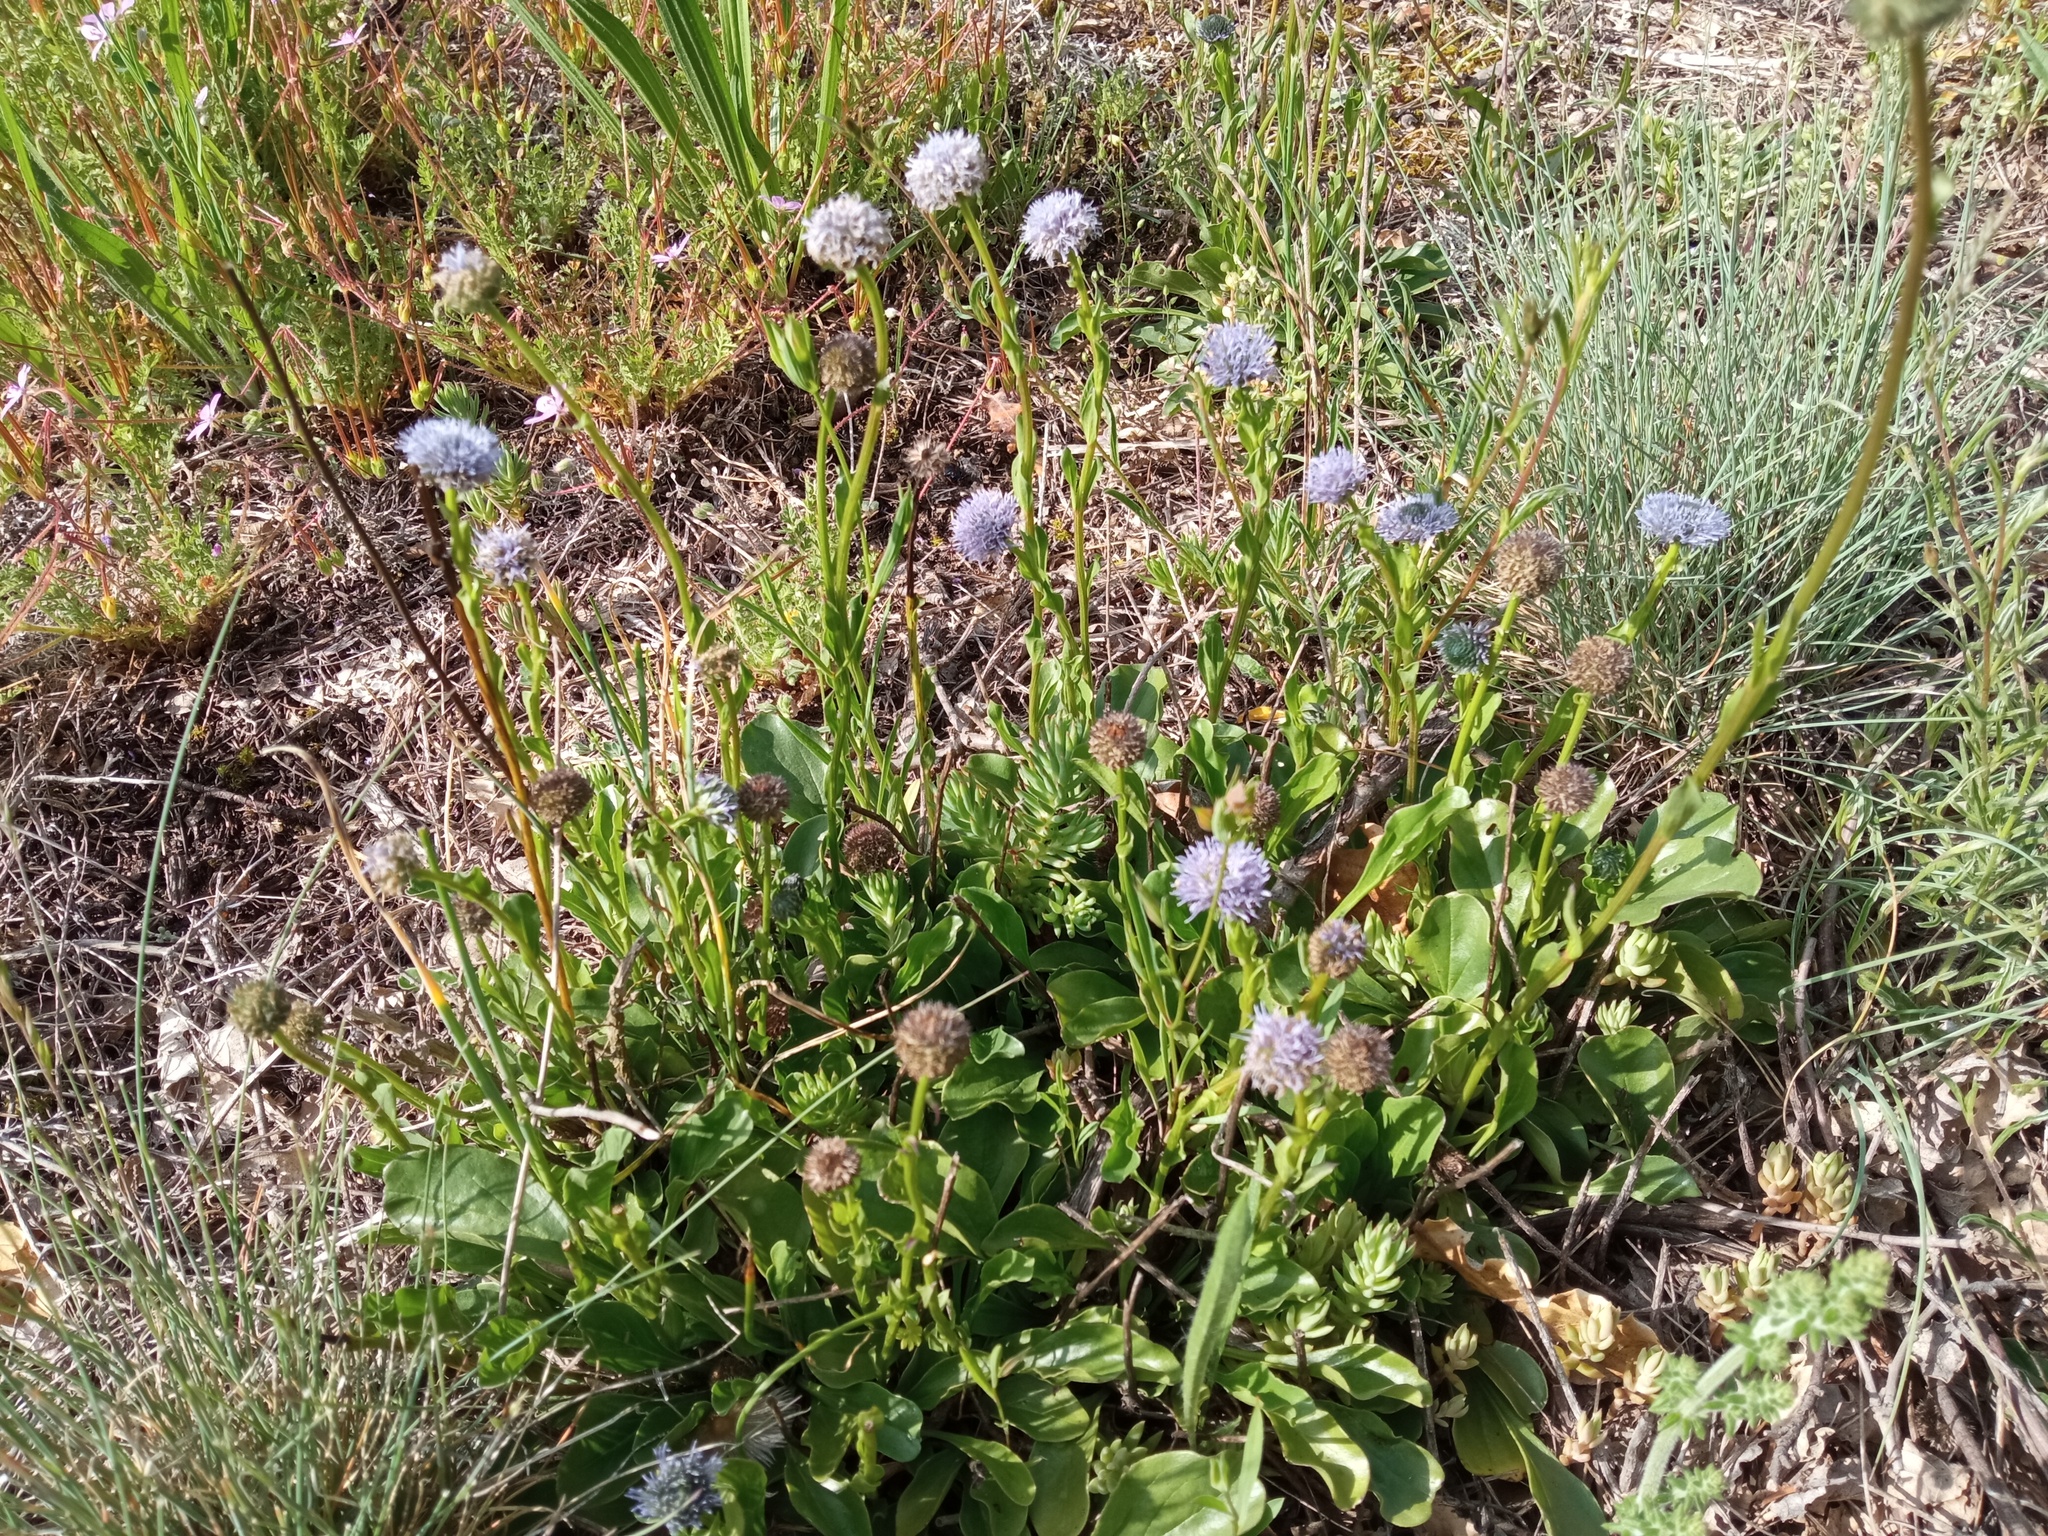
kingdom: Plantae
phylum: Tracheophyta
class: Magnoliopsida
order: Lamiales
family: Plantaginaceae
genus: Globularia
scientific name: Globularia bisnagarica
